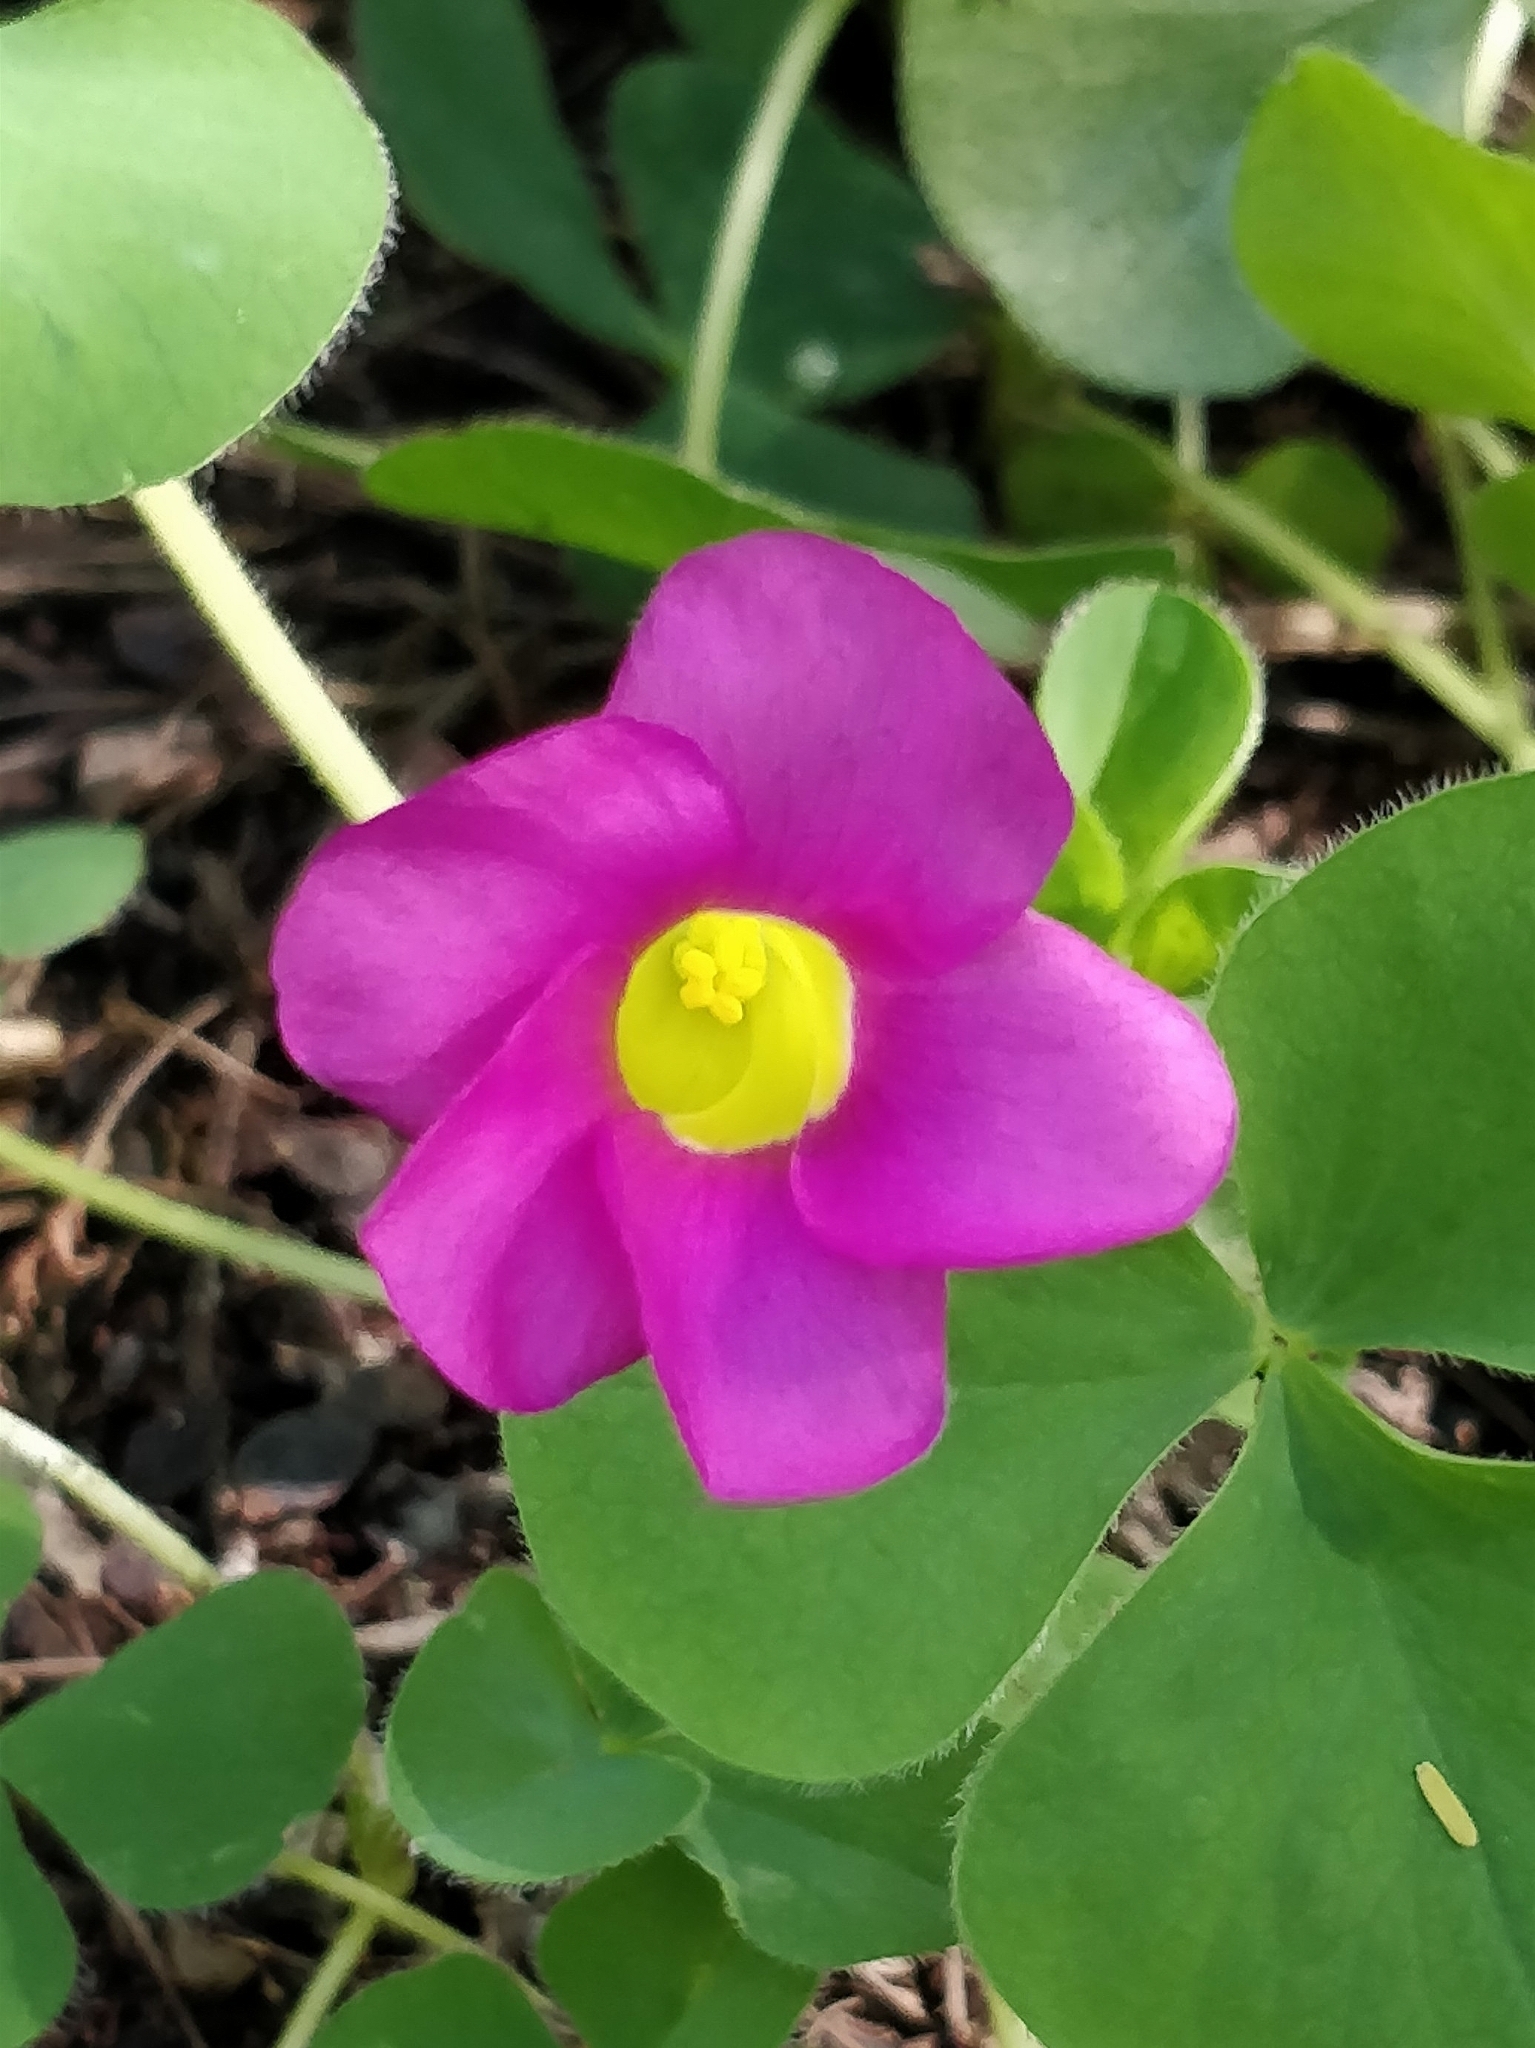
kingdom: Plantae
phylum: Tracheophyta
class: Magnoliopsida
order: Oxalidales
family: Oxalidaceae
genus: Oxalis
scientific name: Oxalis purpurea
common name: Purple woodsorrel
